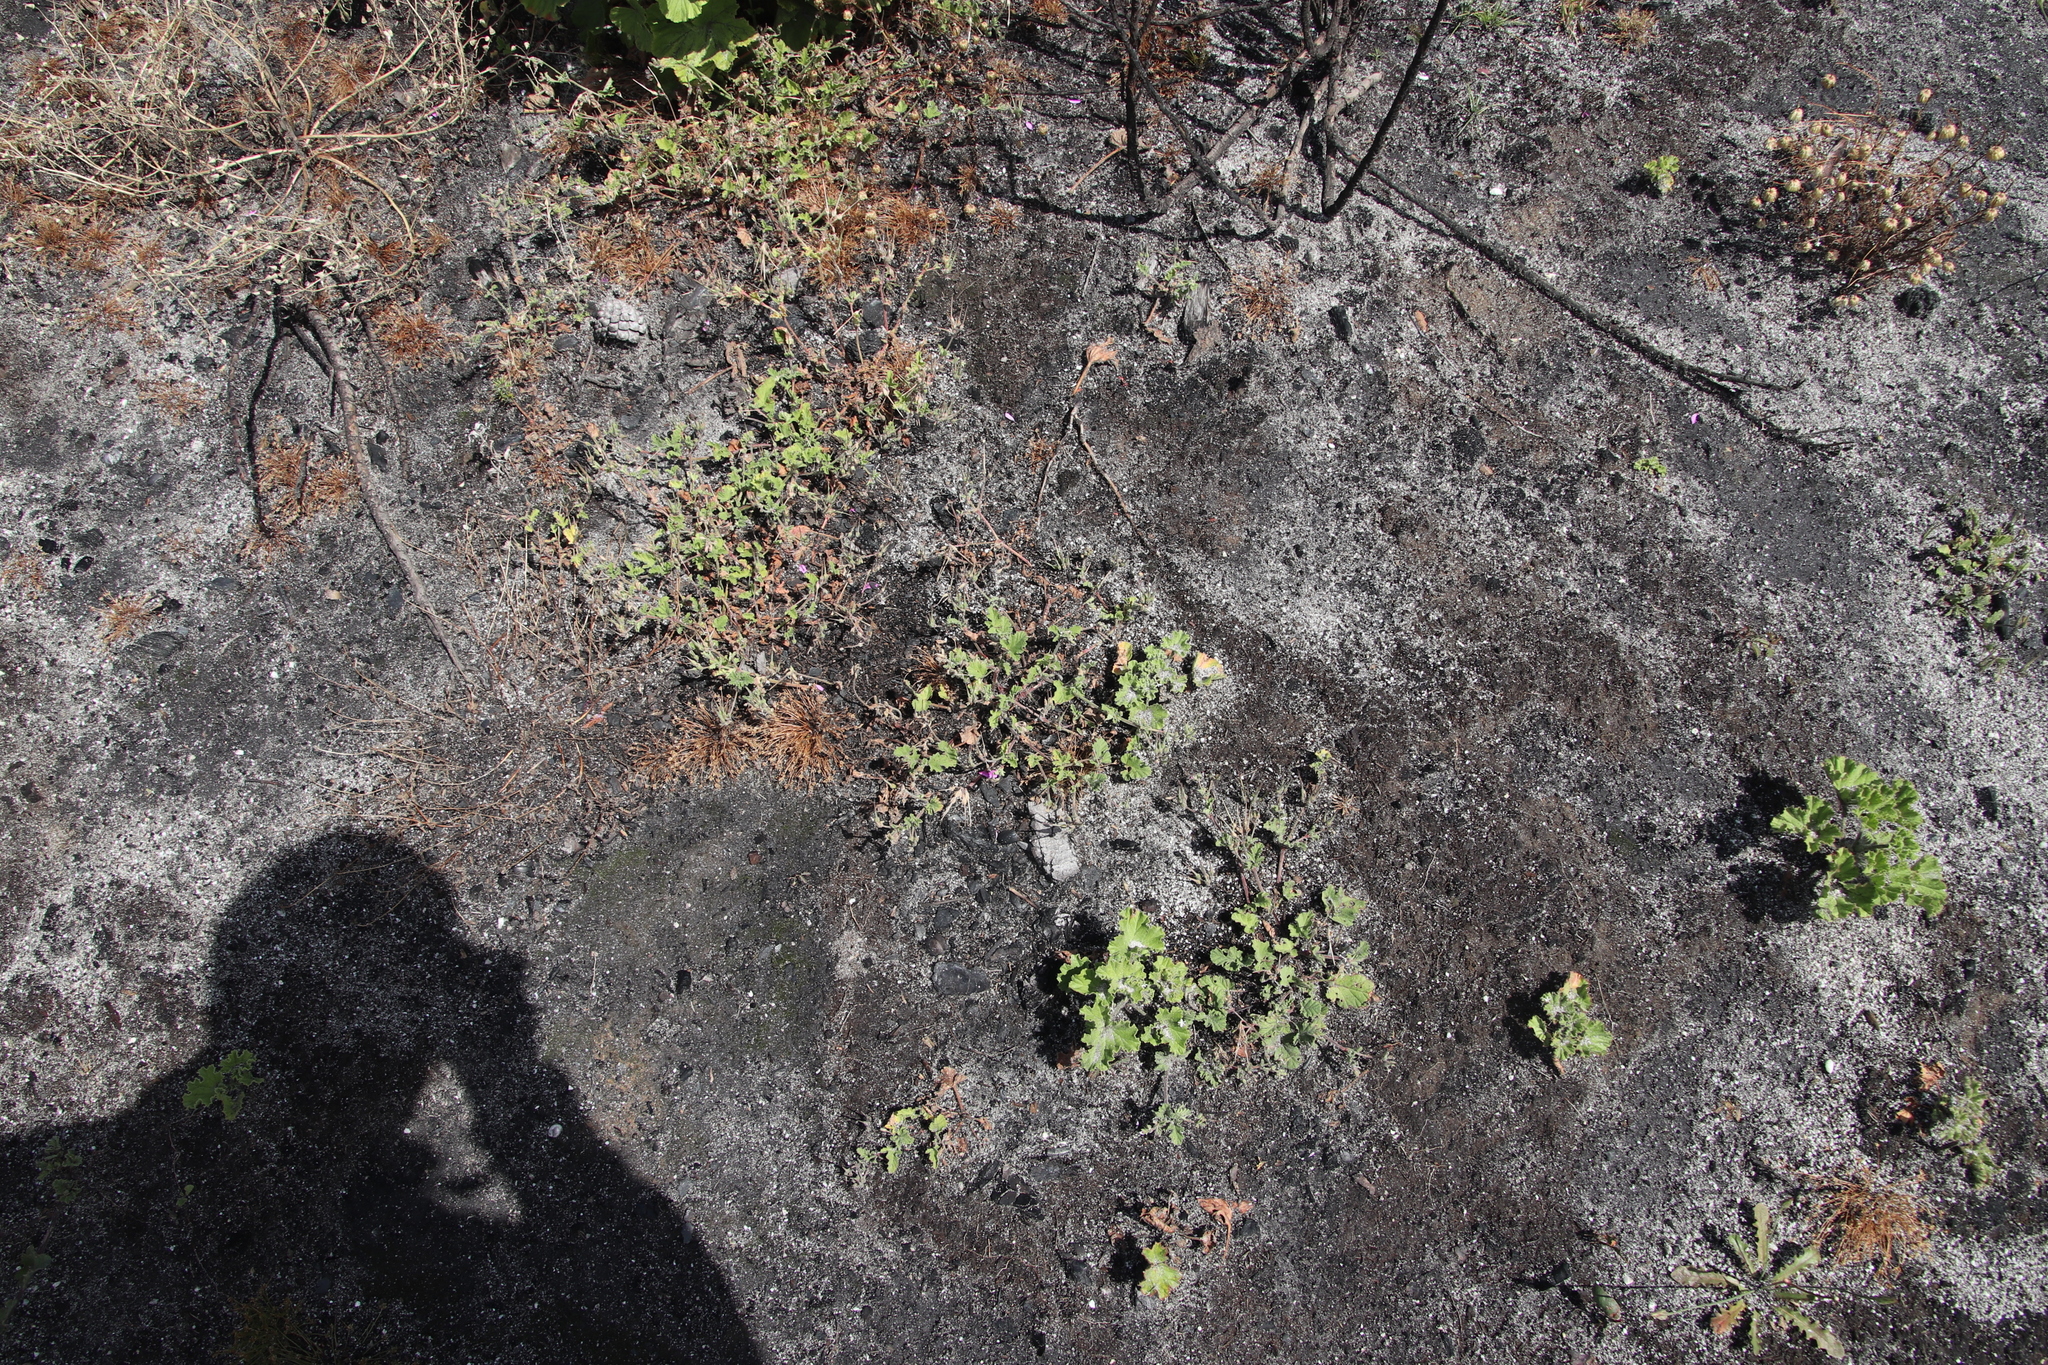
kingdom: Plantae
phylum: Tracheophyta
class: Magnoliopsida
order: Geraniales
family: Geraniaceae
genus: Pelargonium
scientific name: Pelargonium althaeoides
